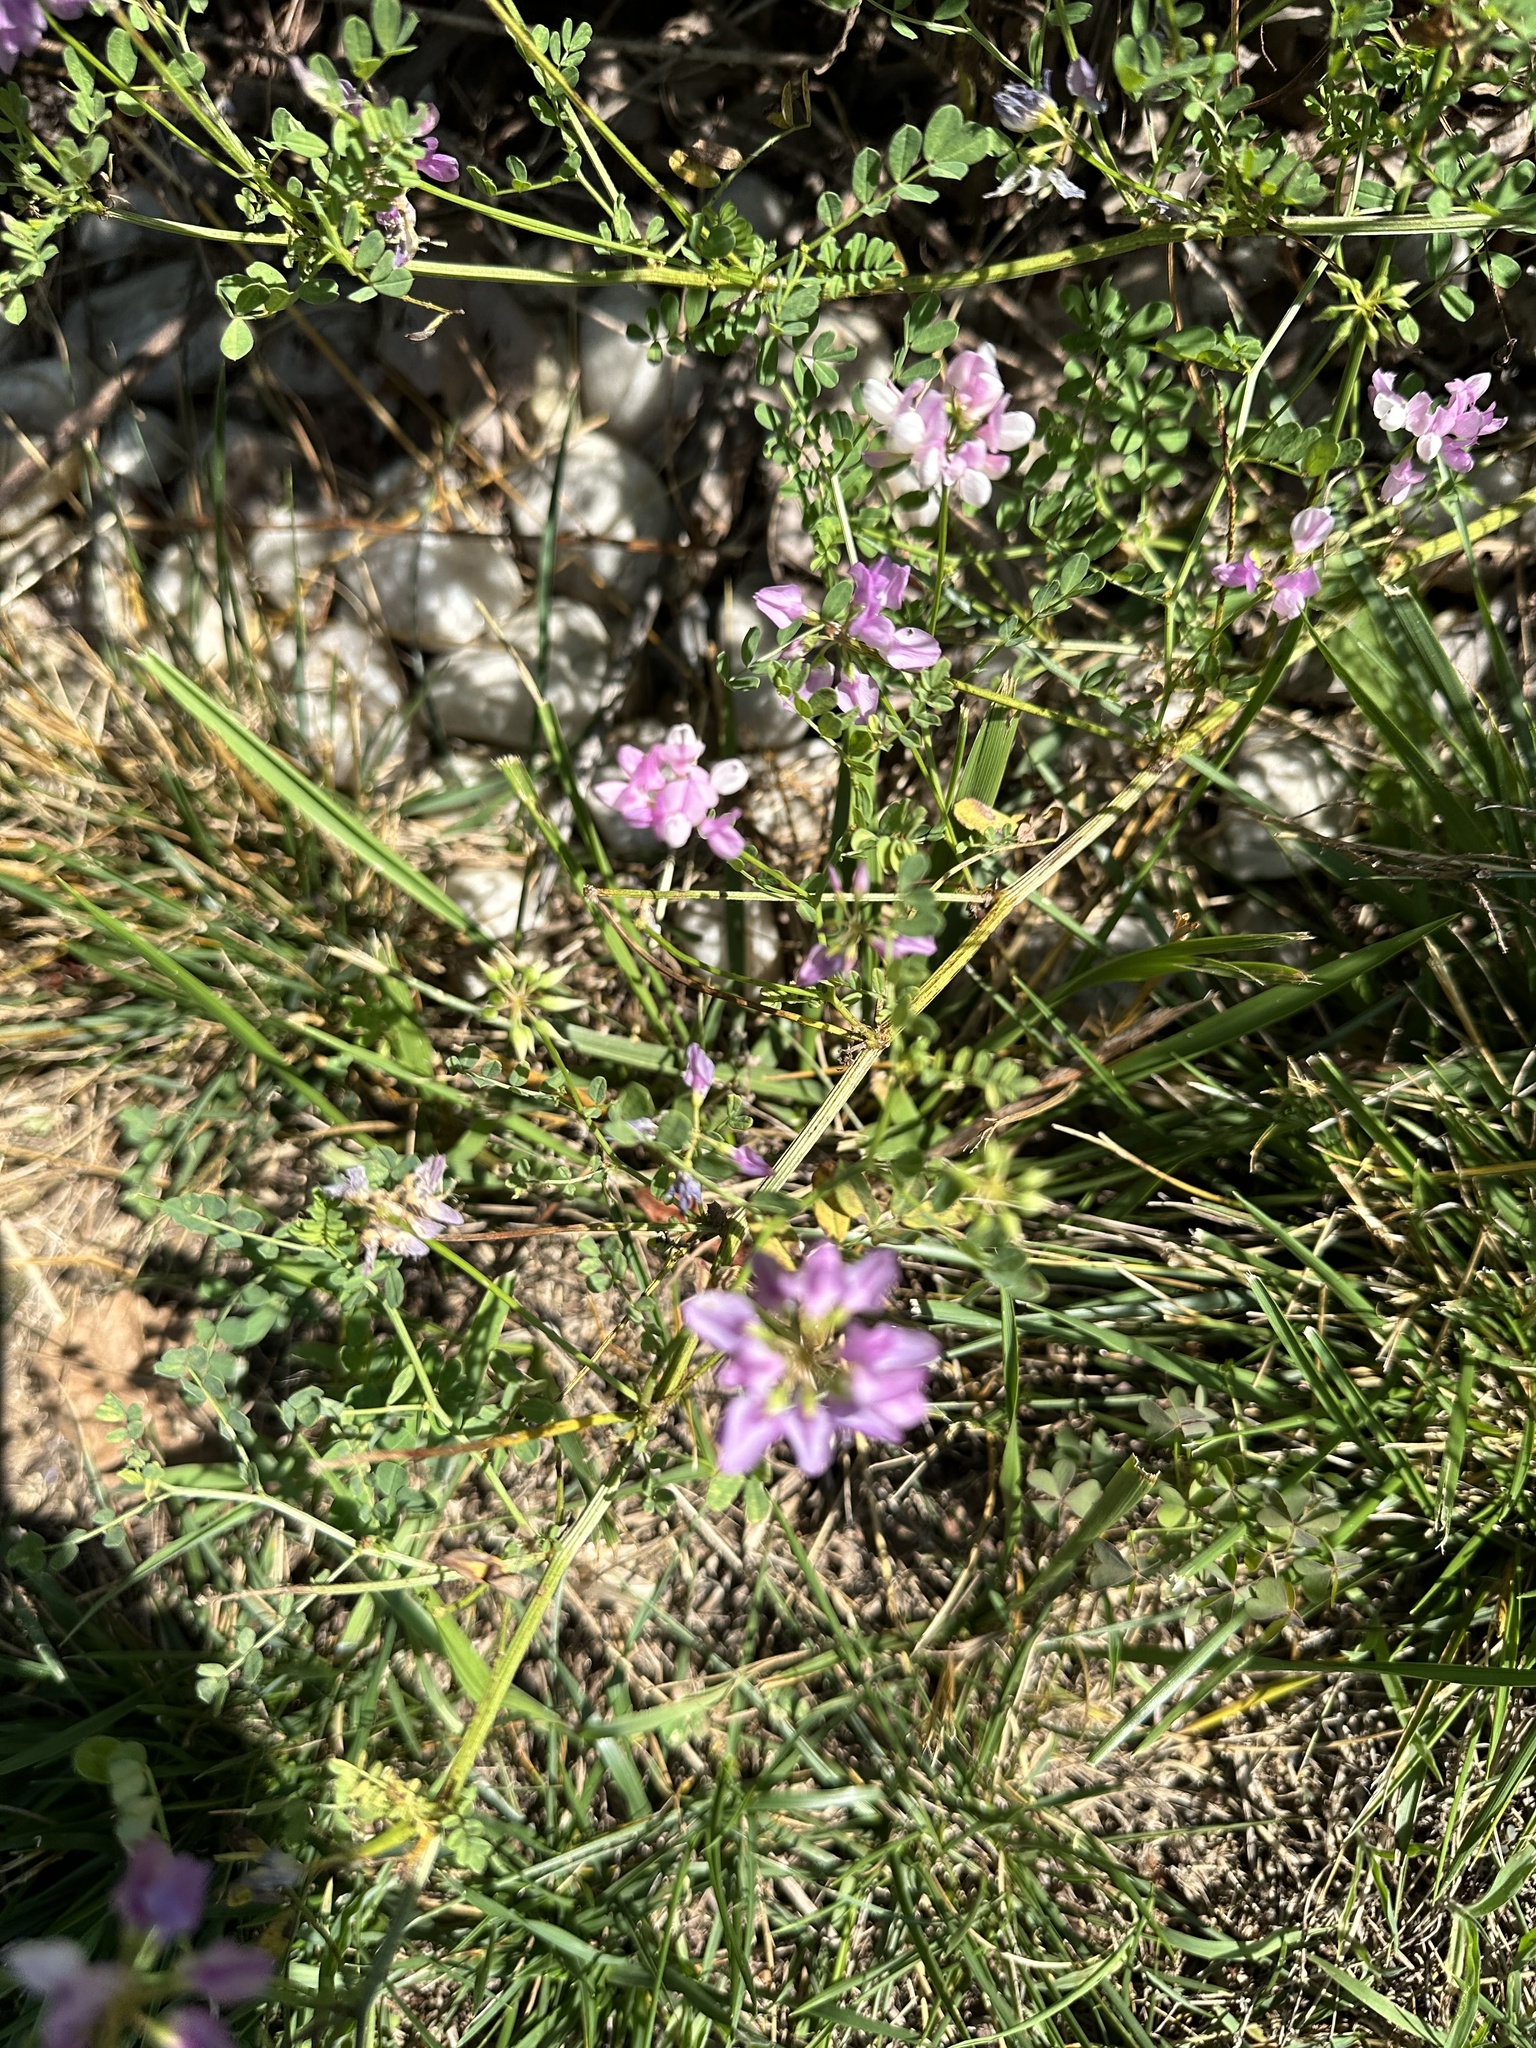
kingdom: Plantae
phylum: Tracheophyta
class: Magnoliopsida
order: Fabales
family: Fabaceae
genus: Coronilla
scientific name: Coronilla varia
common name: Crownvetch
